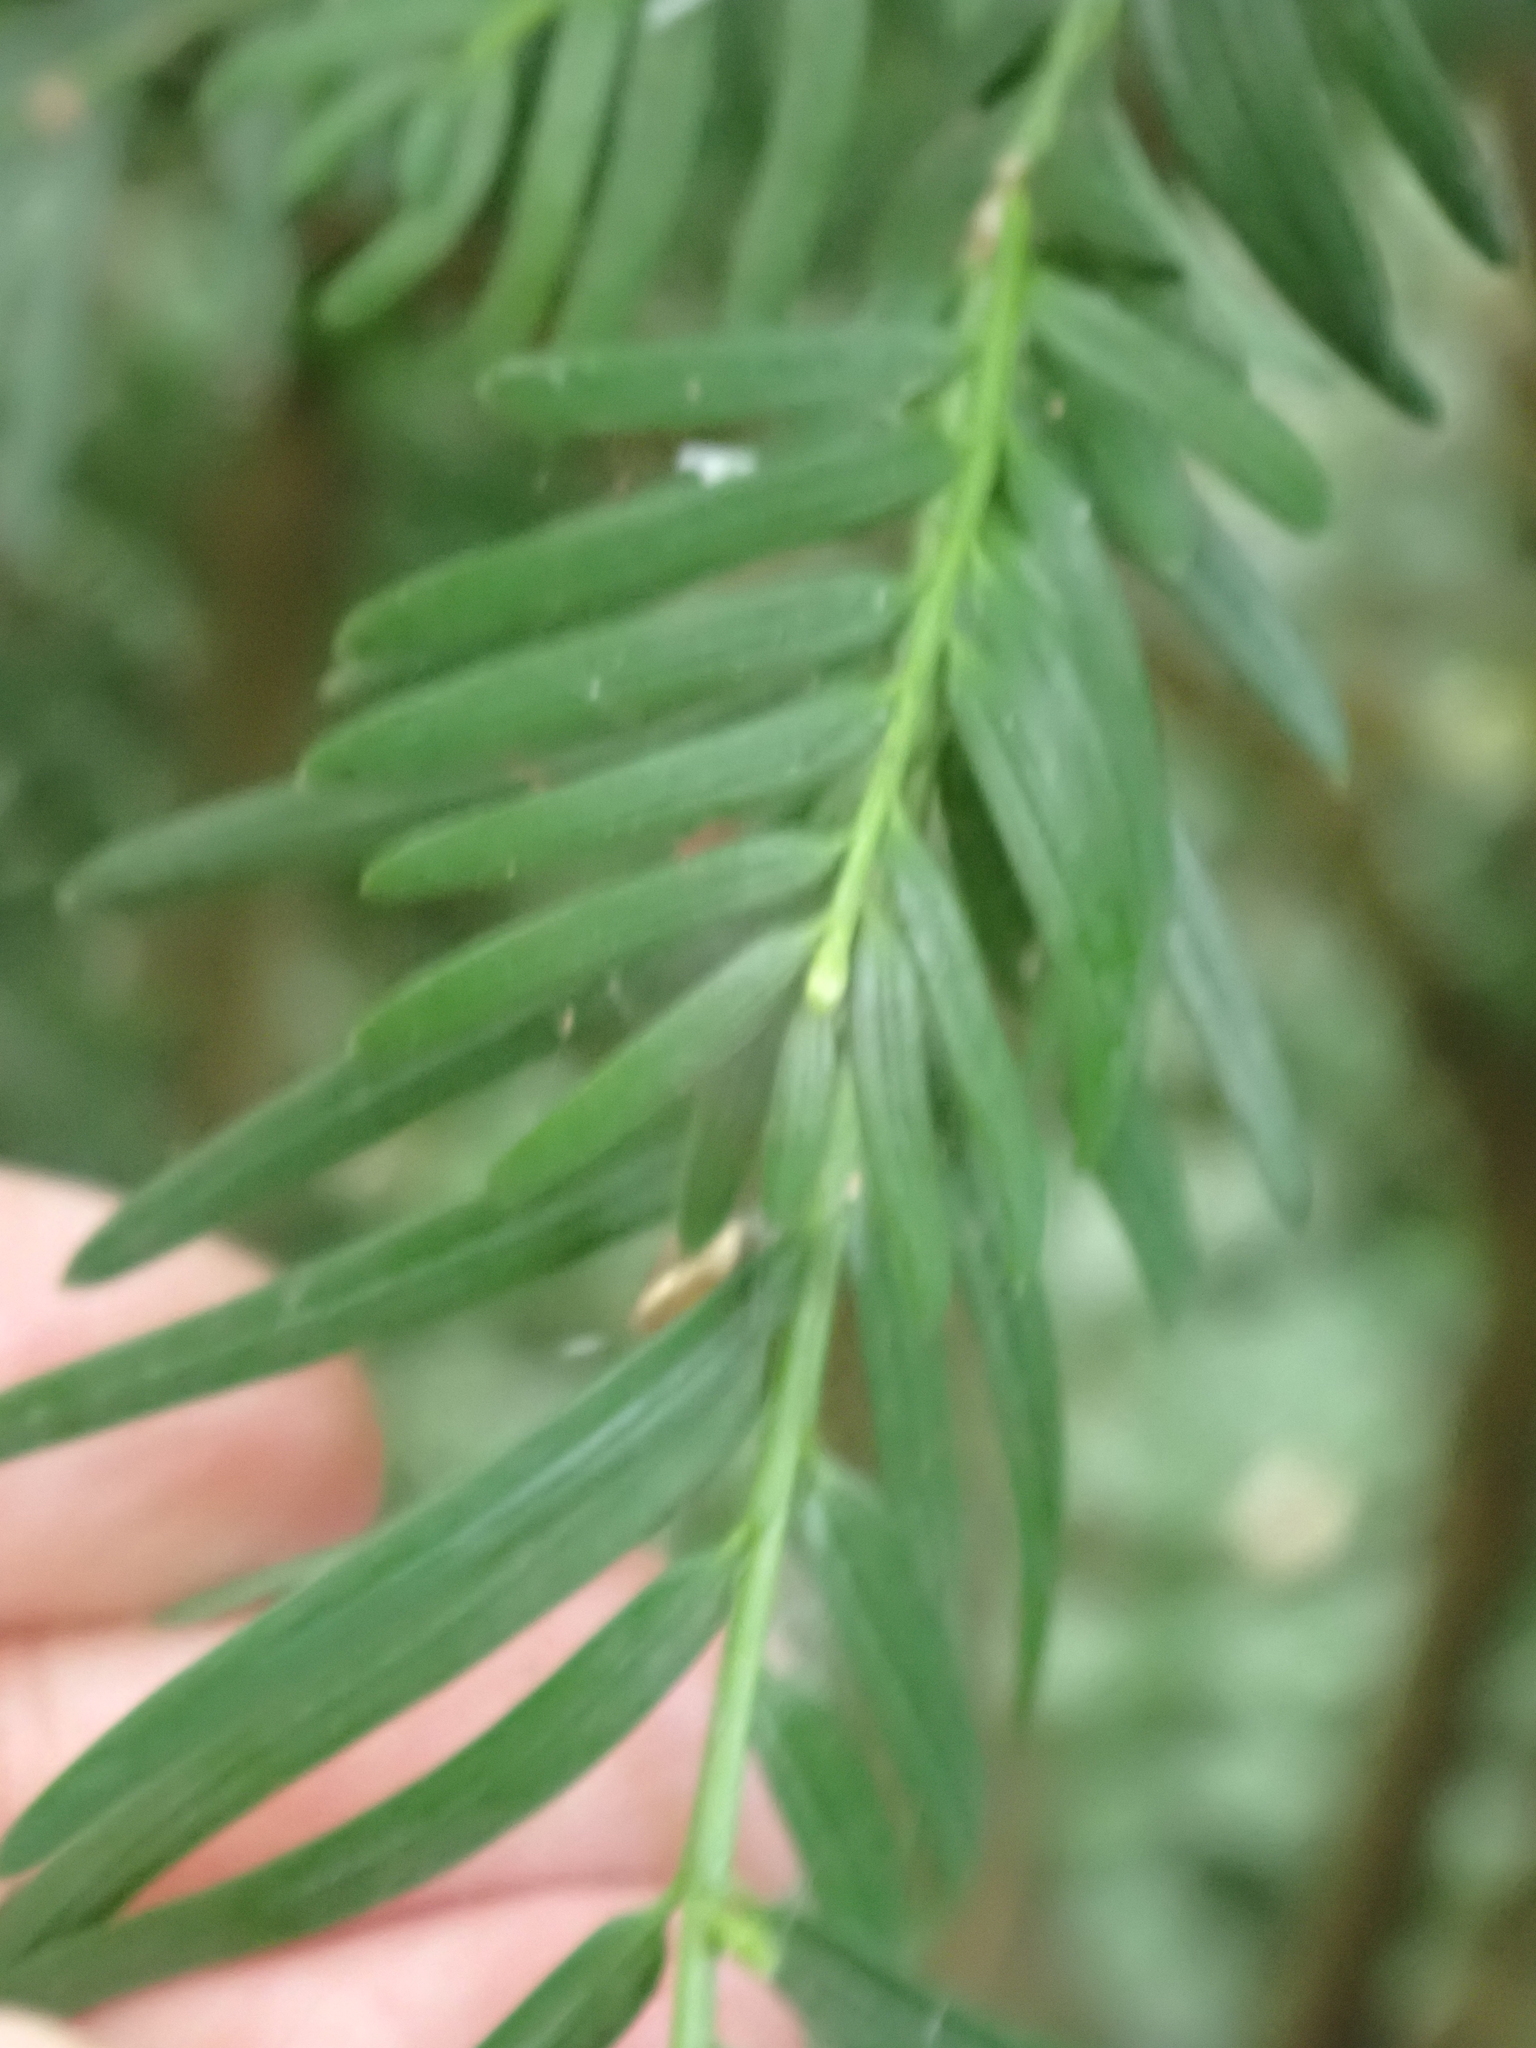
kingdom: Plantae
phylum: Tracheophyta
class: Pinopsida
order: Pinales
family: Taxaceae
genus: Taxus
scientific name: Taxus baccata
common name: Yew
